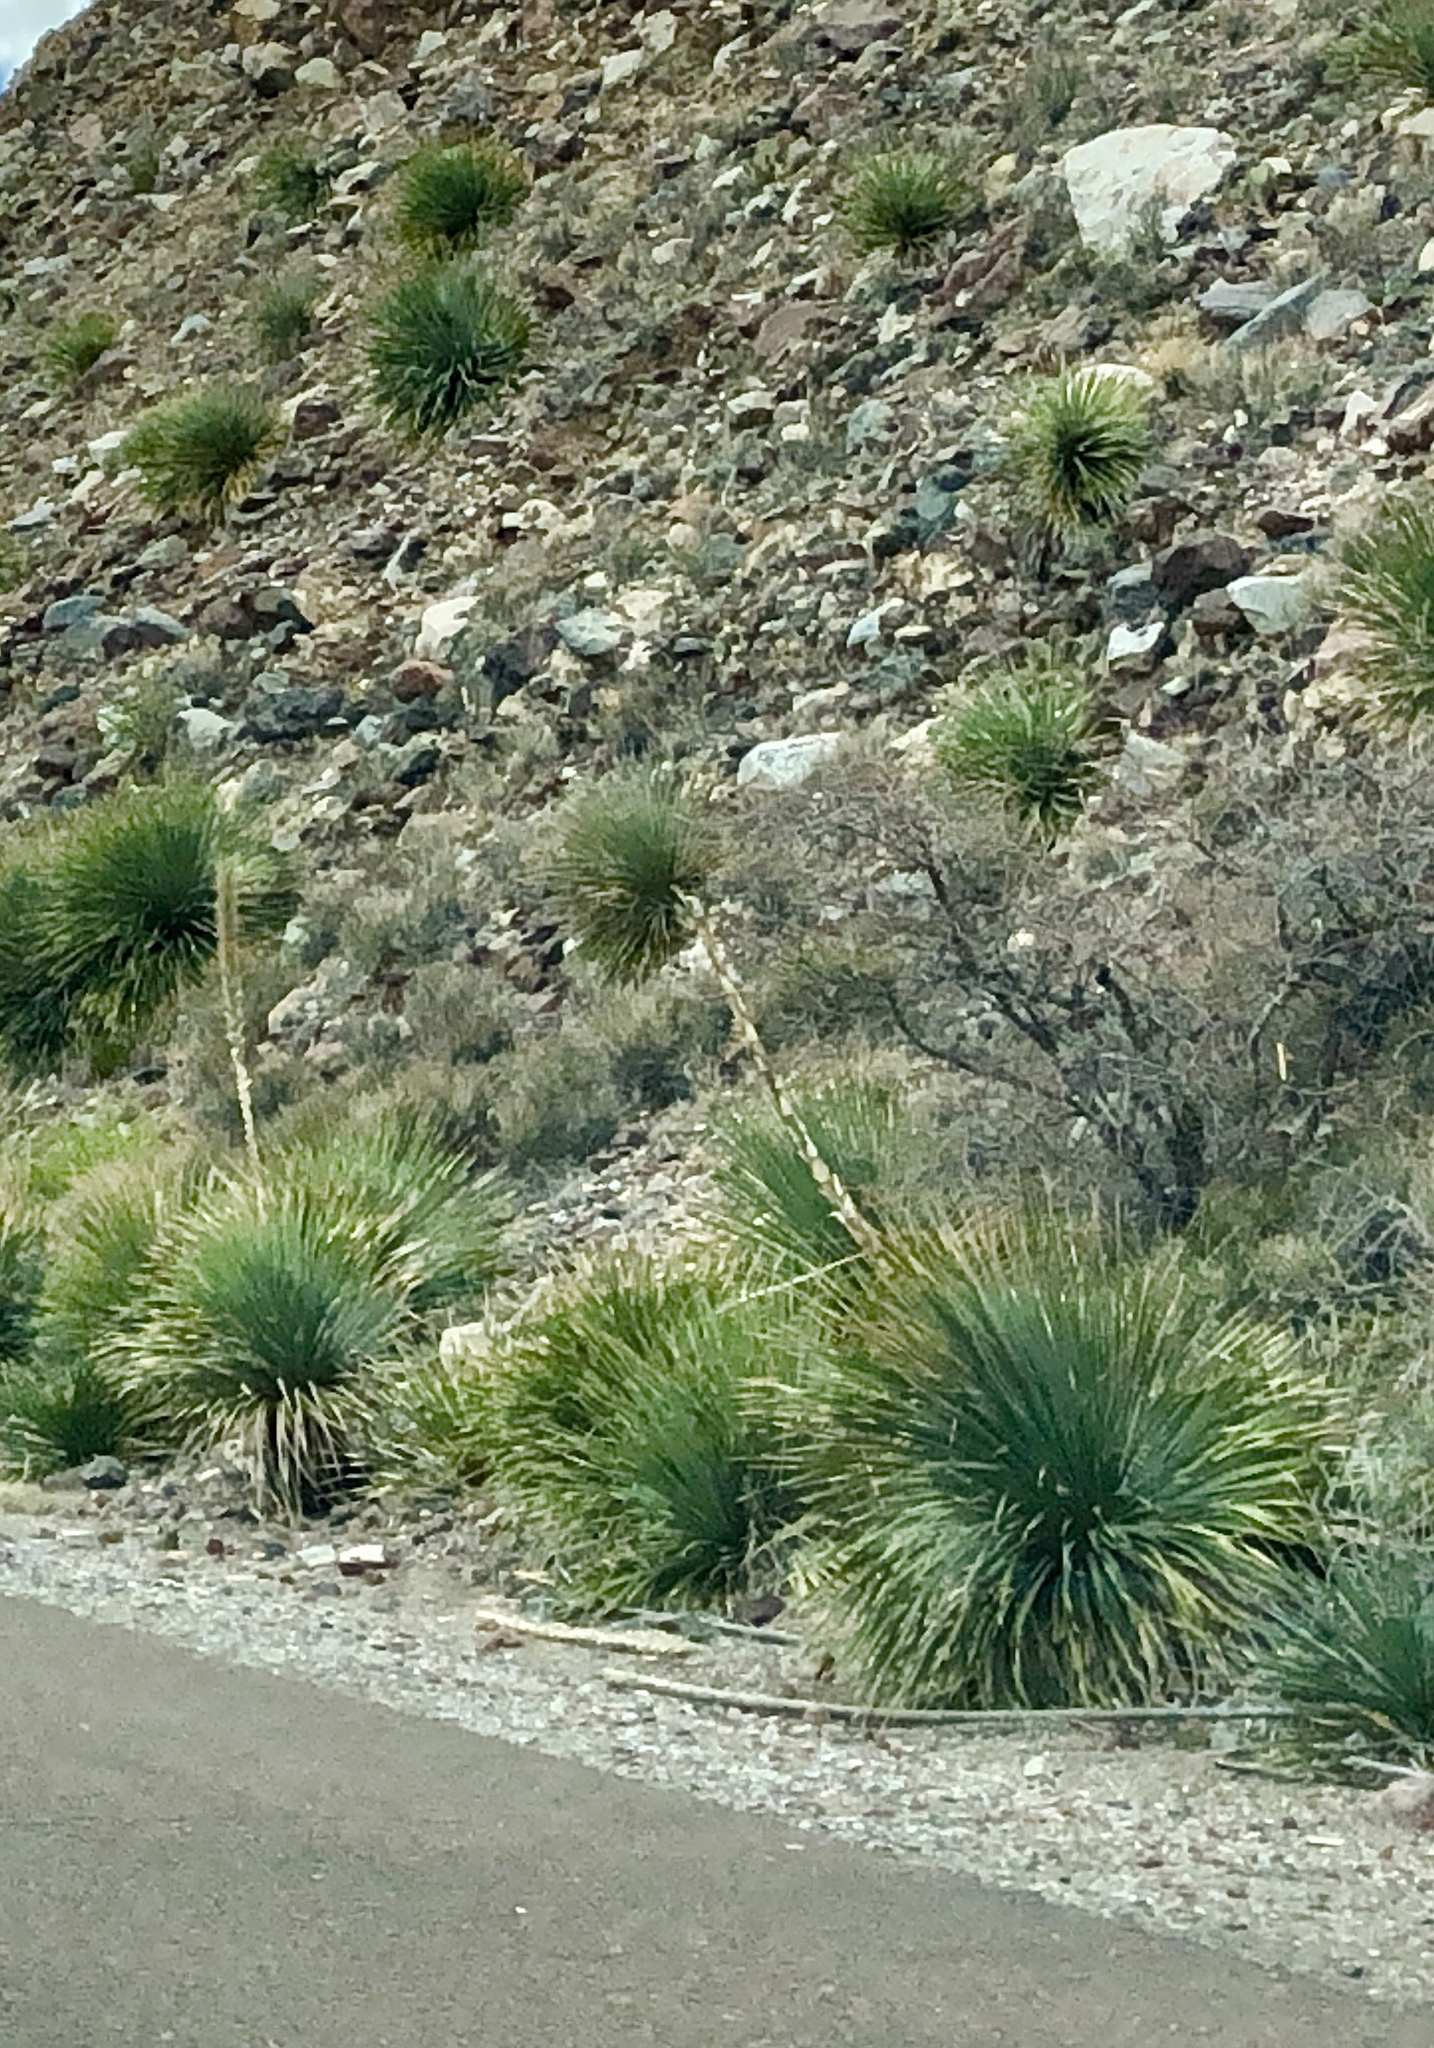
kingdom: Plantae
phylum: Tracheophyta
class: Liliopsida
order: Asparagales
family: Asparagaceae
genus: Dasylirion
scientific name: Dasylirion wheeleri
